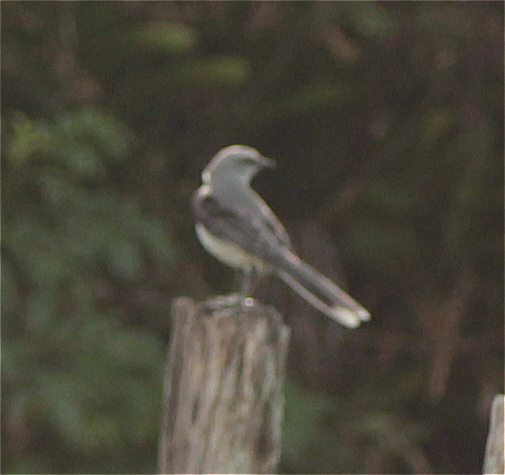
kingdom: Animalia
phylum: Chordata
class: Aves
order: Passeriformes
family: Mimidae
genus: Mimus
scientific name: Mimus gilvus
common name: Tropical mockingbird
